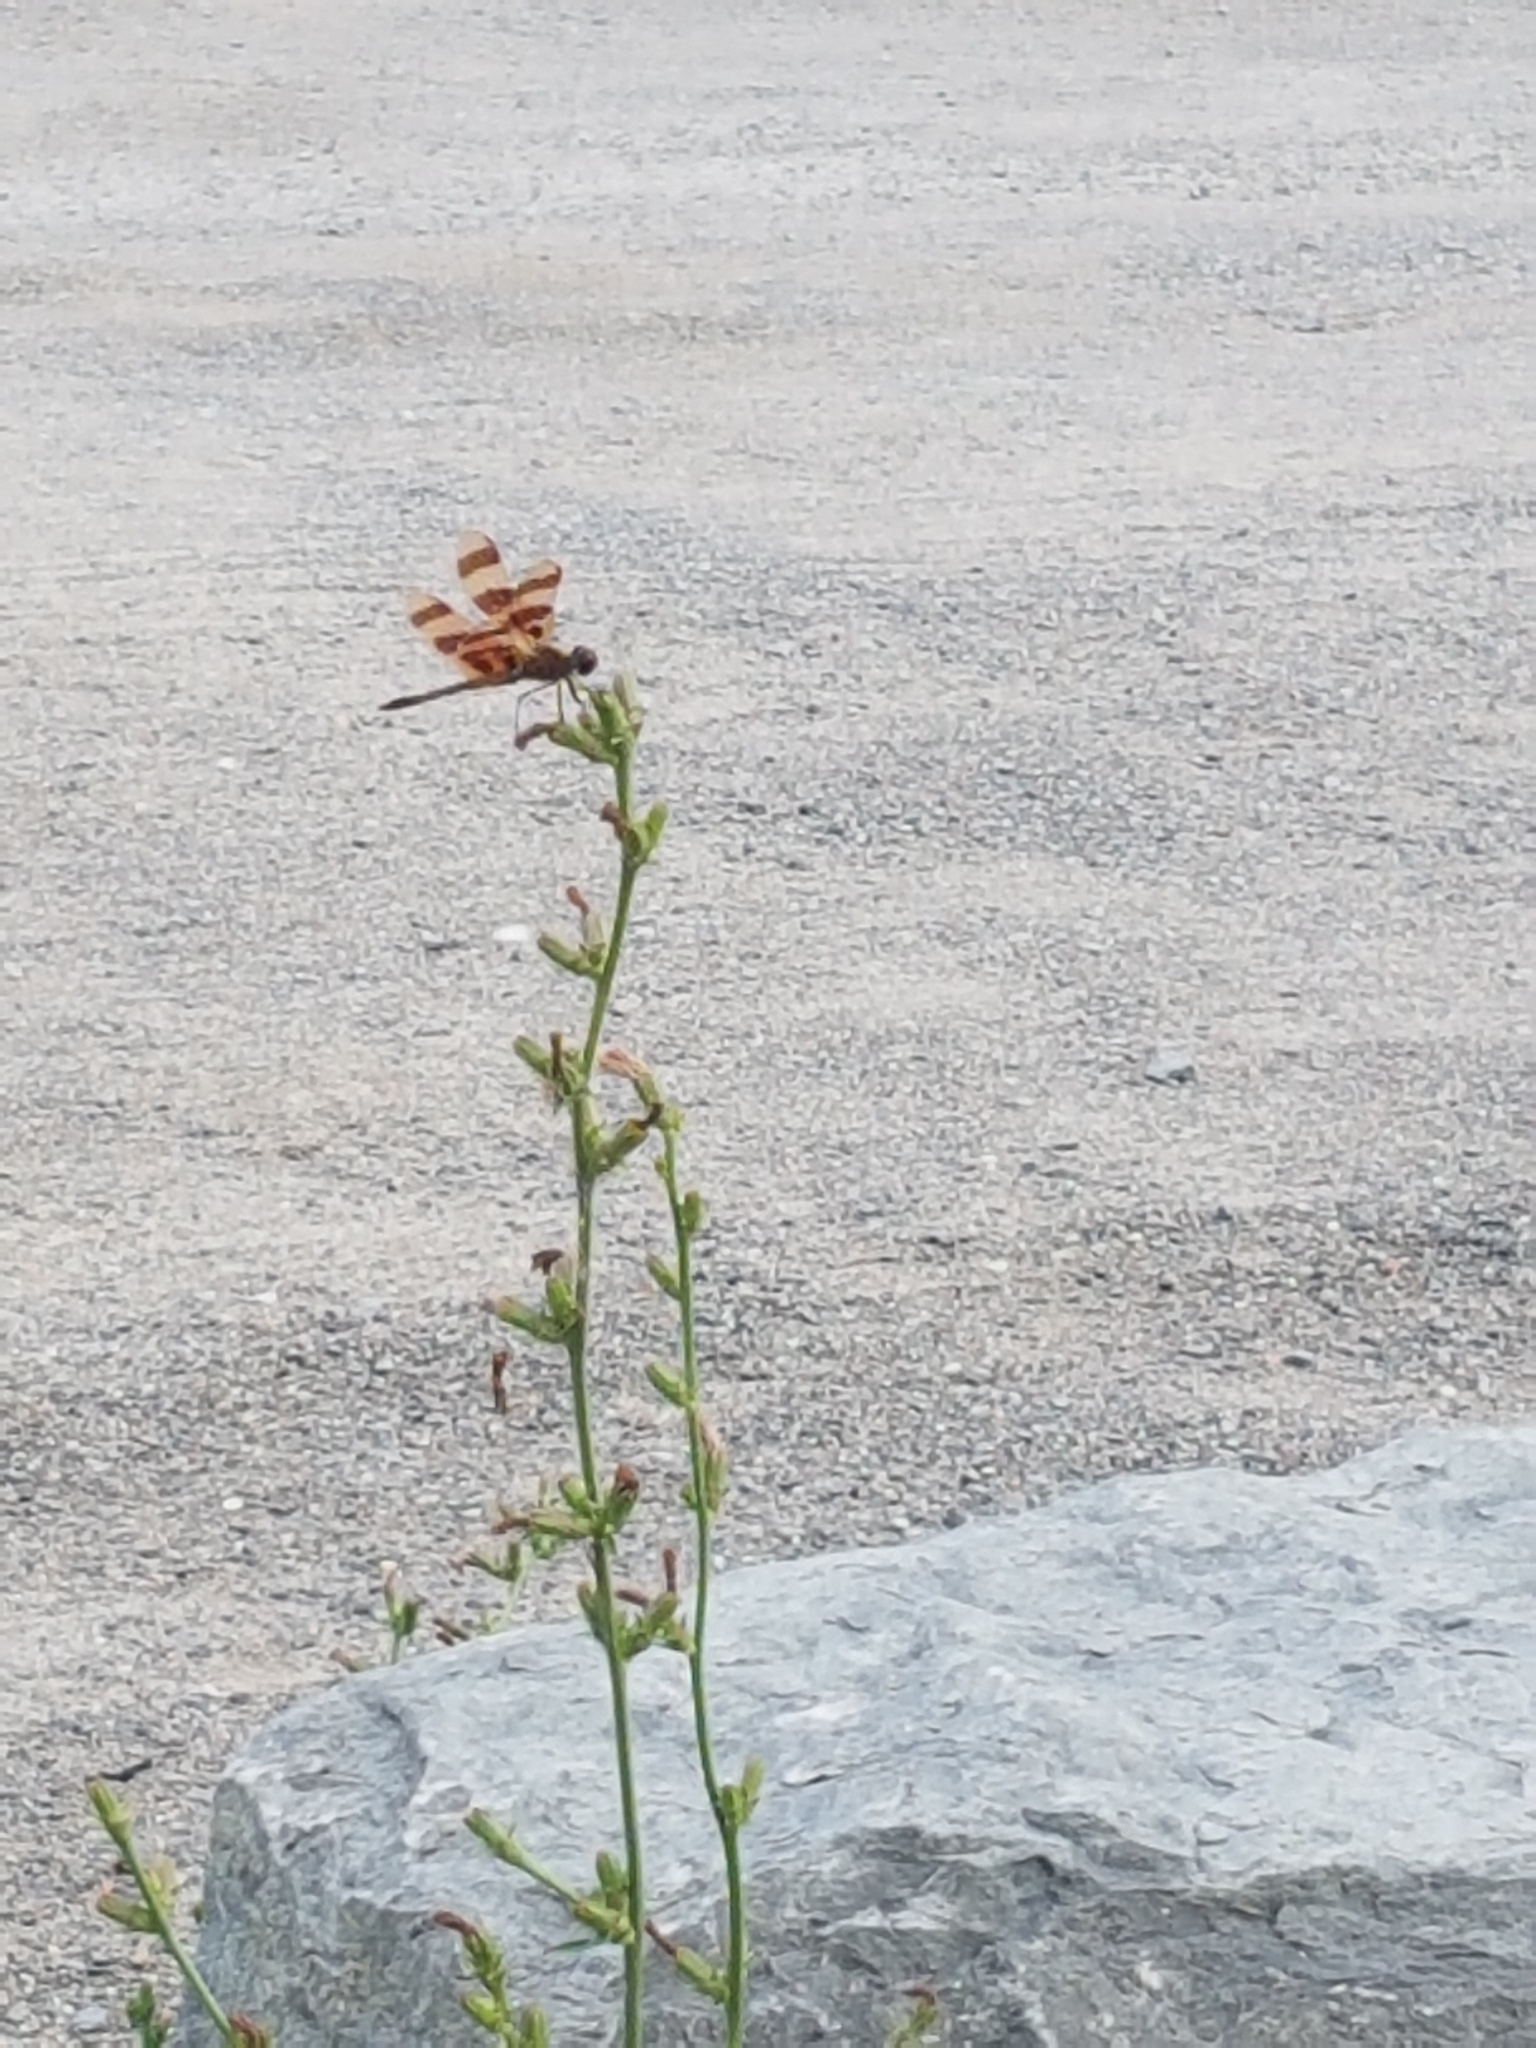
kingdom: Animalia
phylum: Arthropoda
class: Insecta
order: Odonata
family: Libellulidae
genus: Celithemis
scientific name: Celithemis eponina
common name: Halloween pennant
